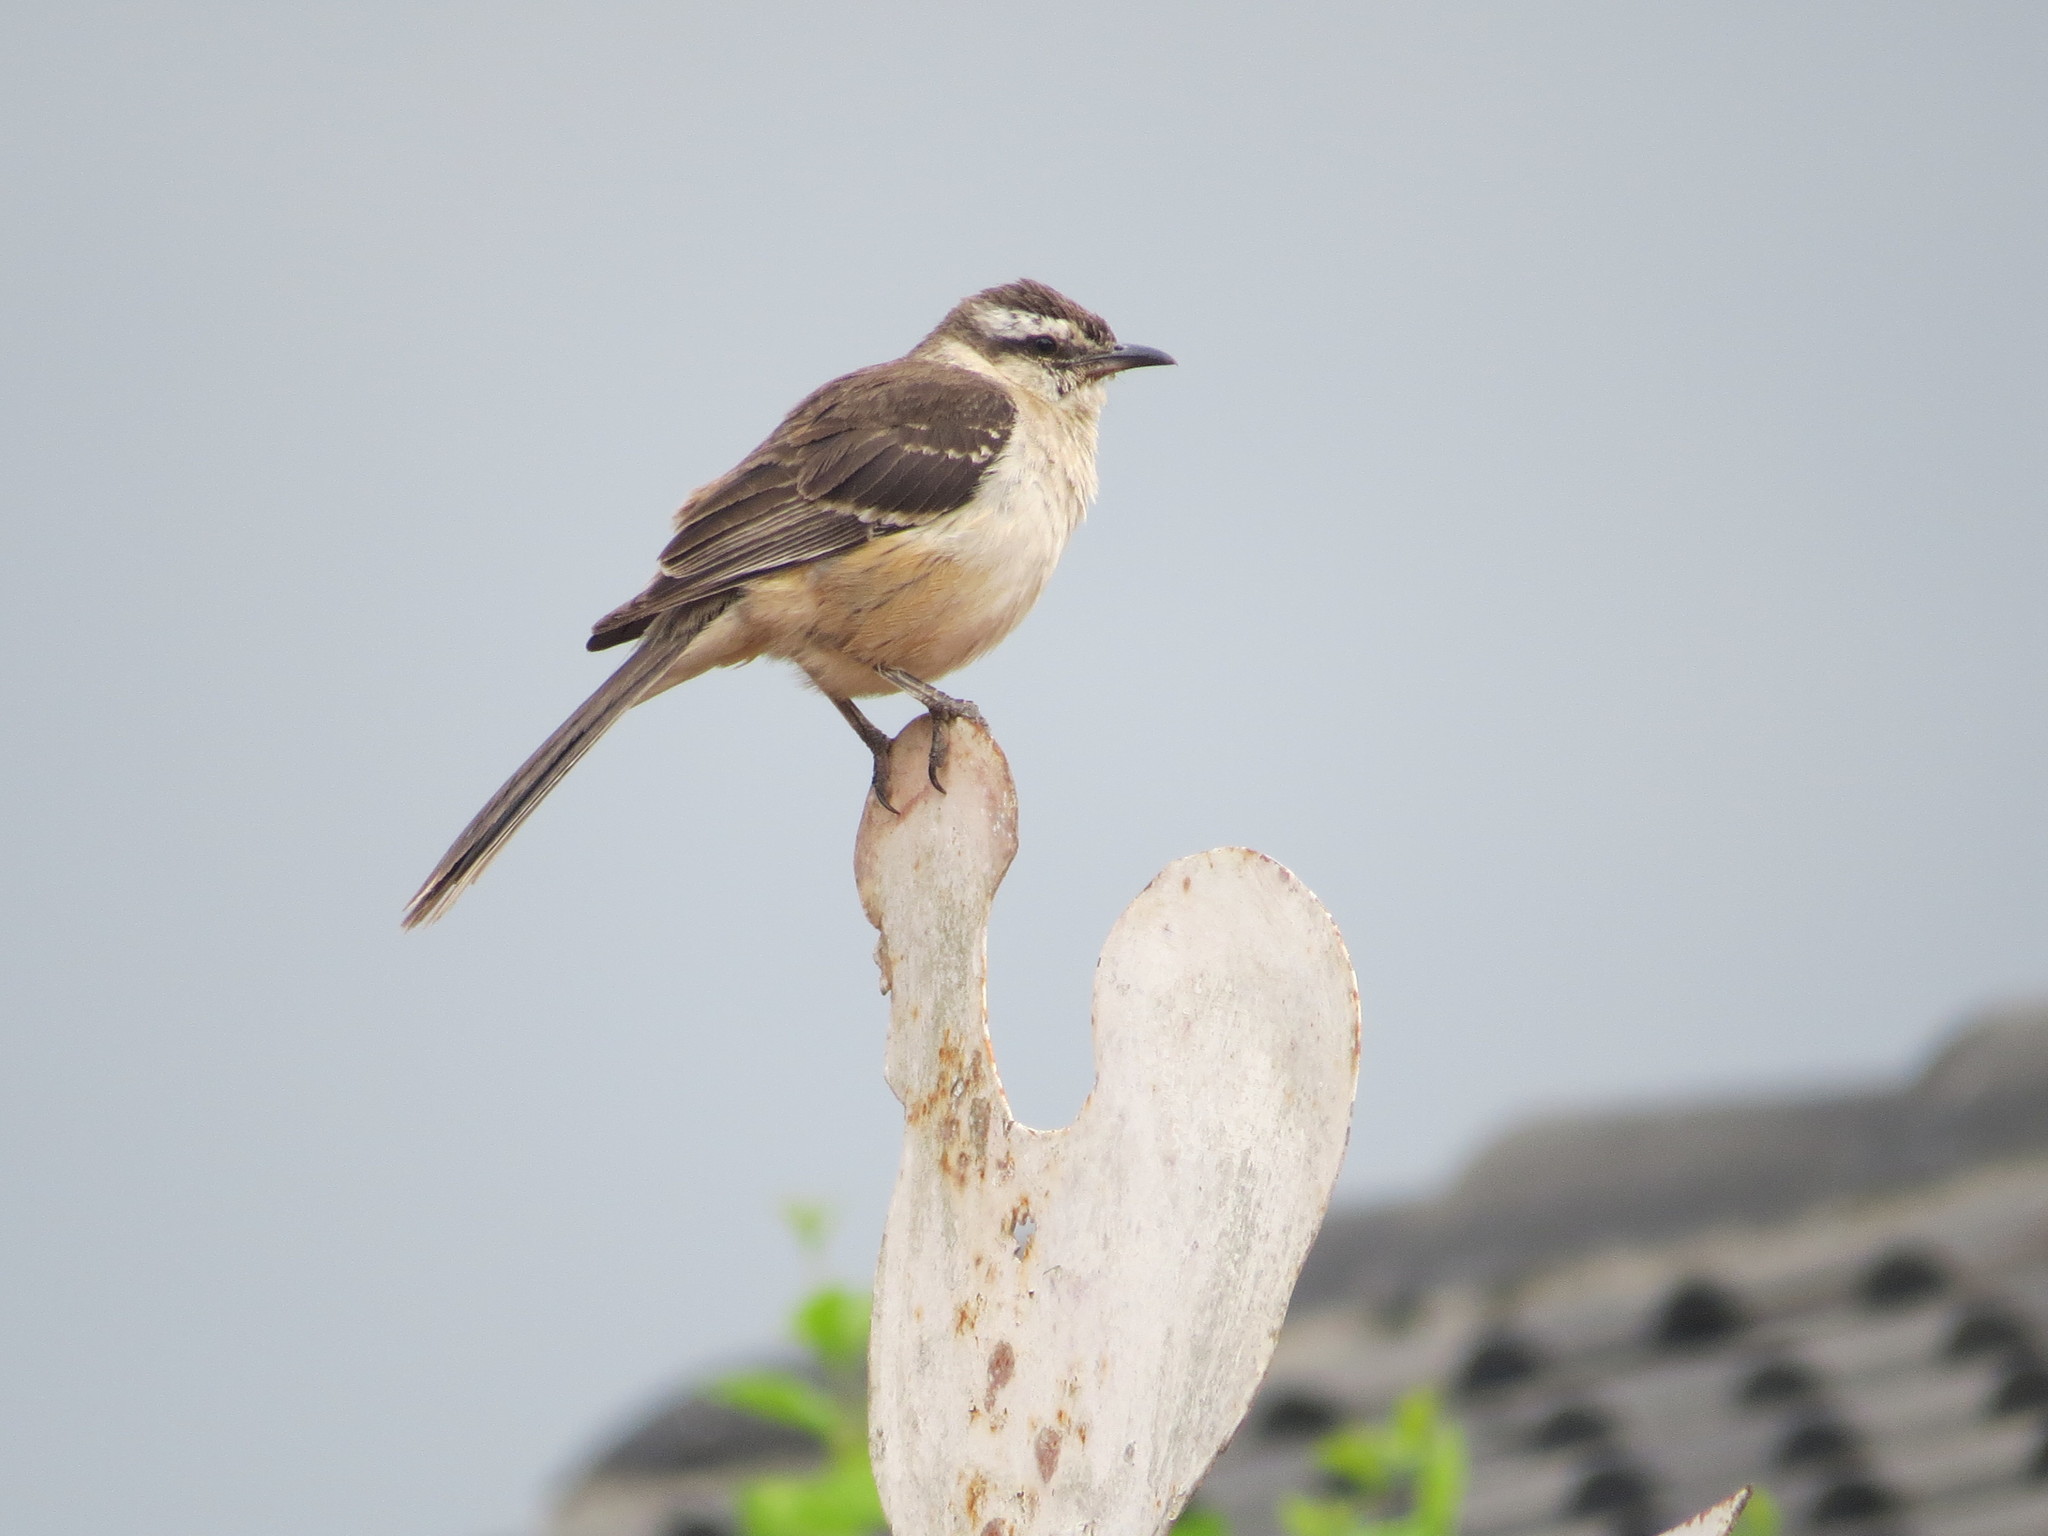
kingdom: Animalia
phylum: Chordata
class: Aves
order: Passeriformes
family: Mimidae
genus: Mimus
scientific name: Mimus saturninus
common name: Chalk-browed mockingbird
